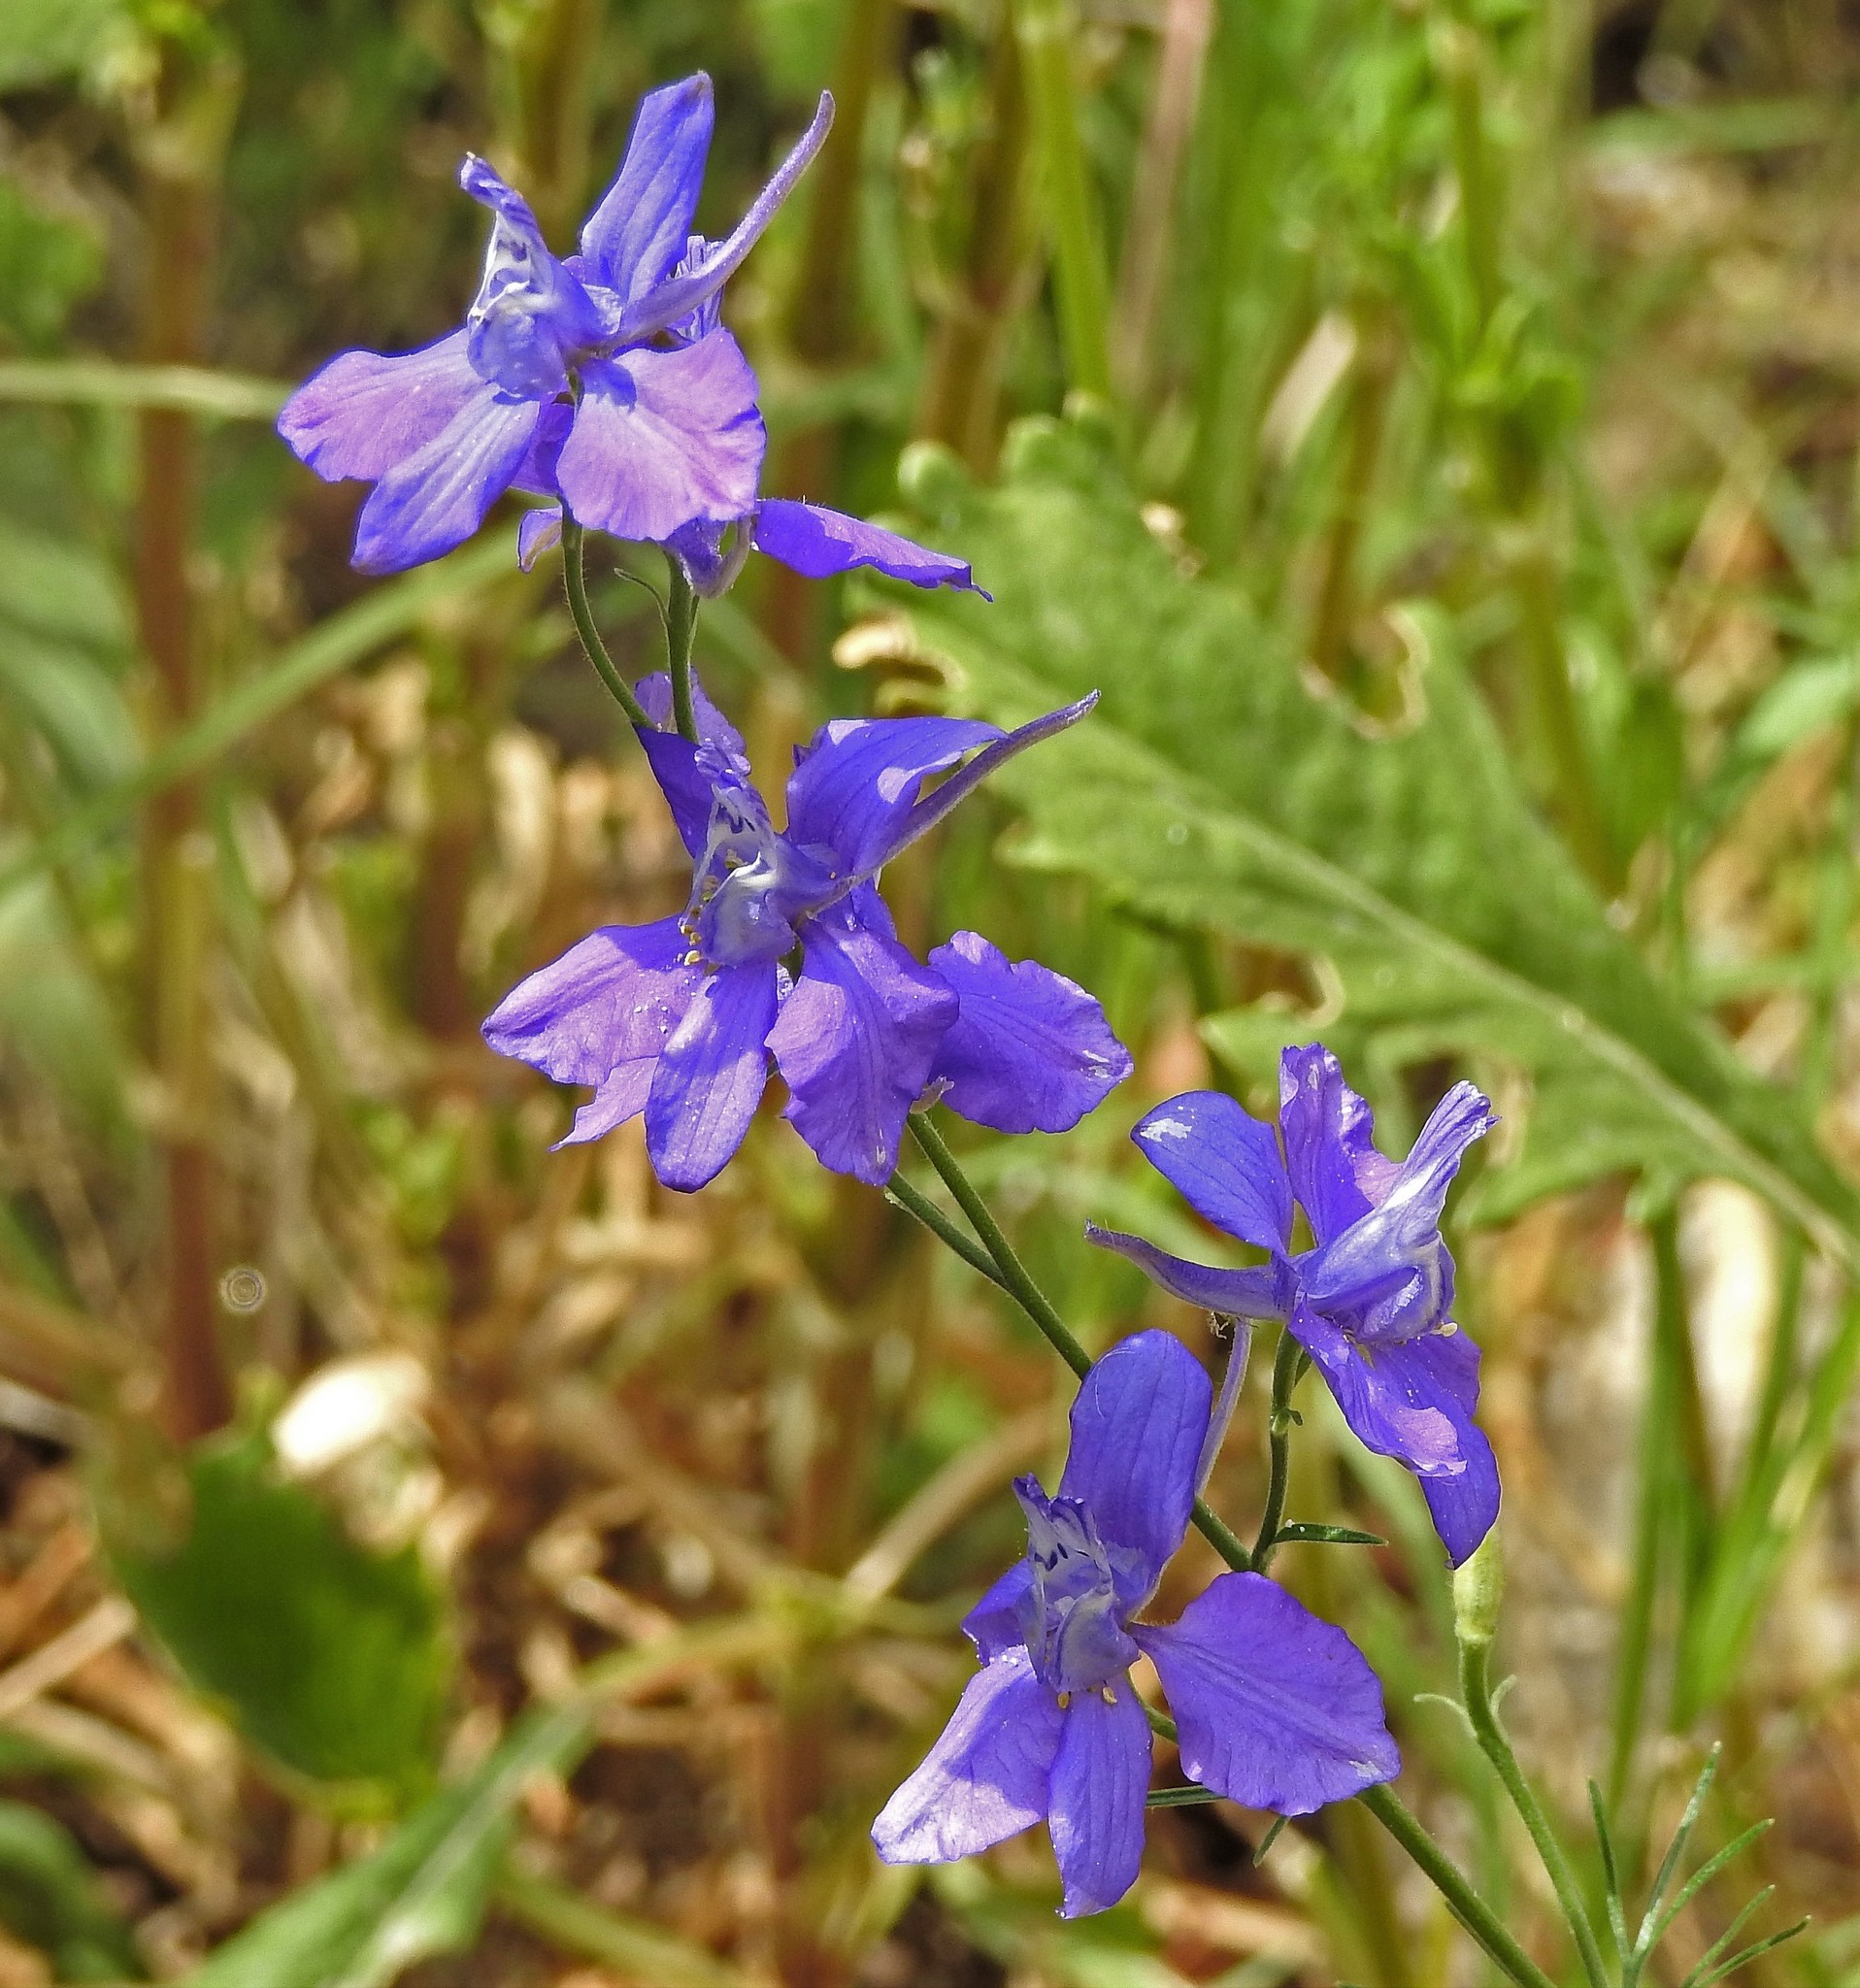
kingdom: Plantae
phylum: Tracheophyta
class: Magnoliopsida
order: Ranunculales
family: Ranunculaceae
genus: Delphinium
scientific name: Delphinium ajacis
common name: Doubtful knight's-spur
